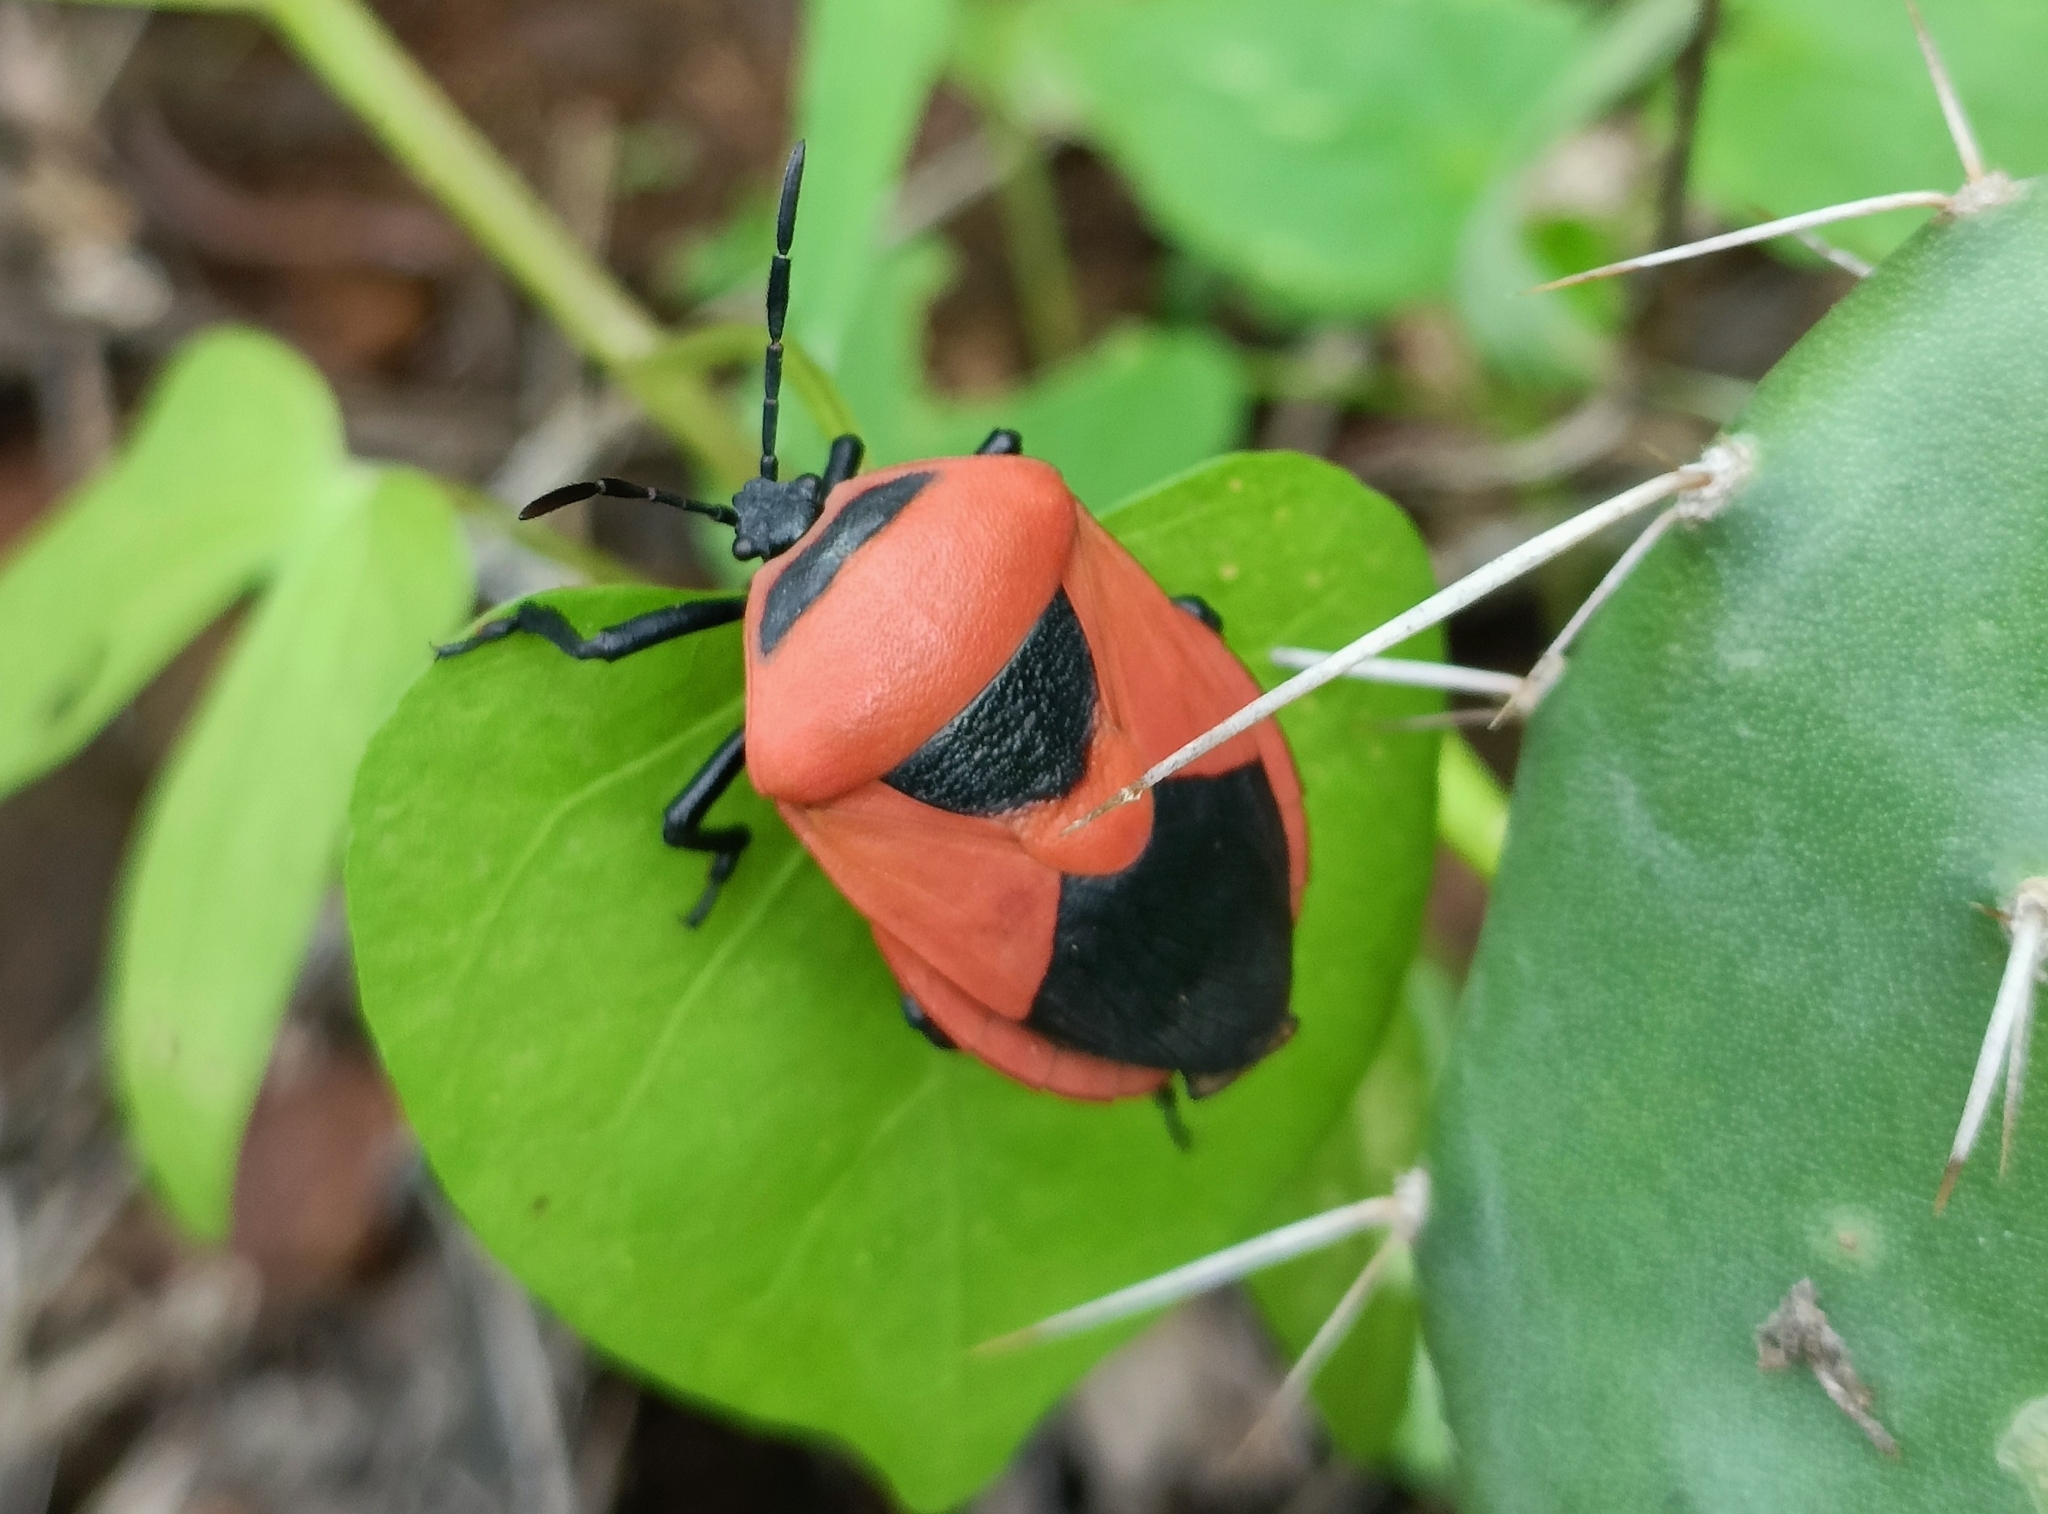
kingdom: Animalia
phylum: Arthropoda
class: Insecta
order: Hemiptera
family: Dinidoridae
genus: Coridius
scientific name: Coridius ianus
